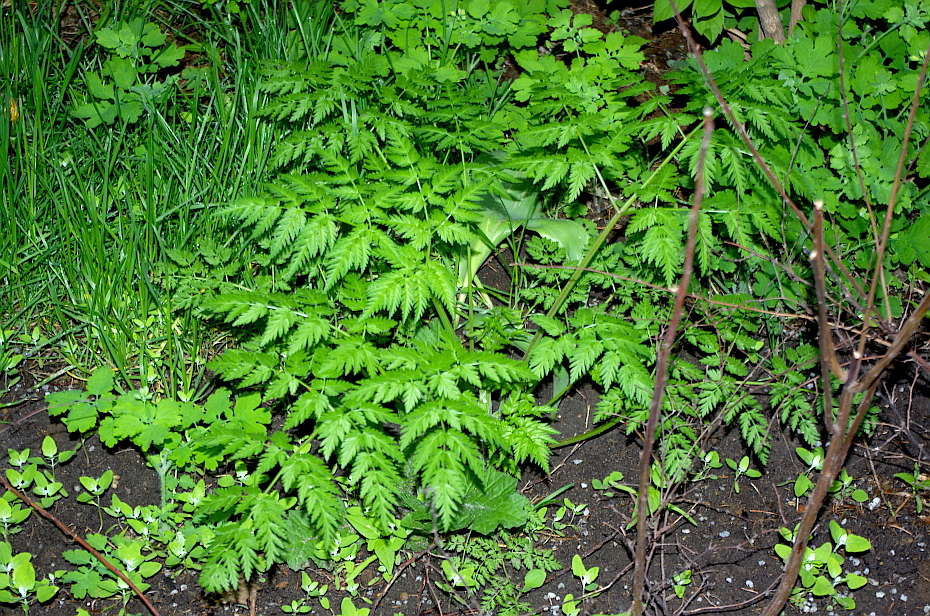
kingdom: Plantae
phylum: Tracheophyta
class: Magnoliopsida
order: Apiales
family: Apiaceae
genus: Anthriscus
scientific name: Anthriscus sylvestris
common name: Cow parsley
